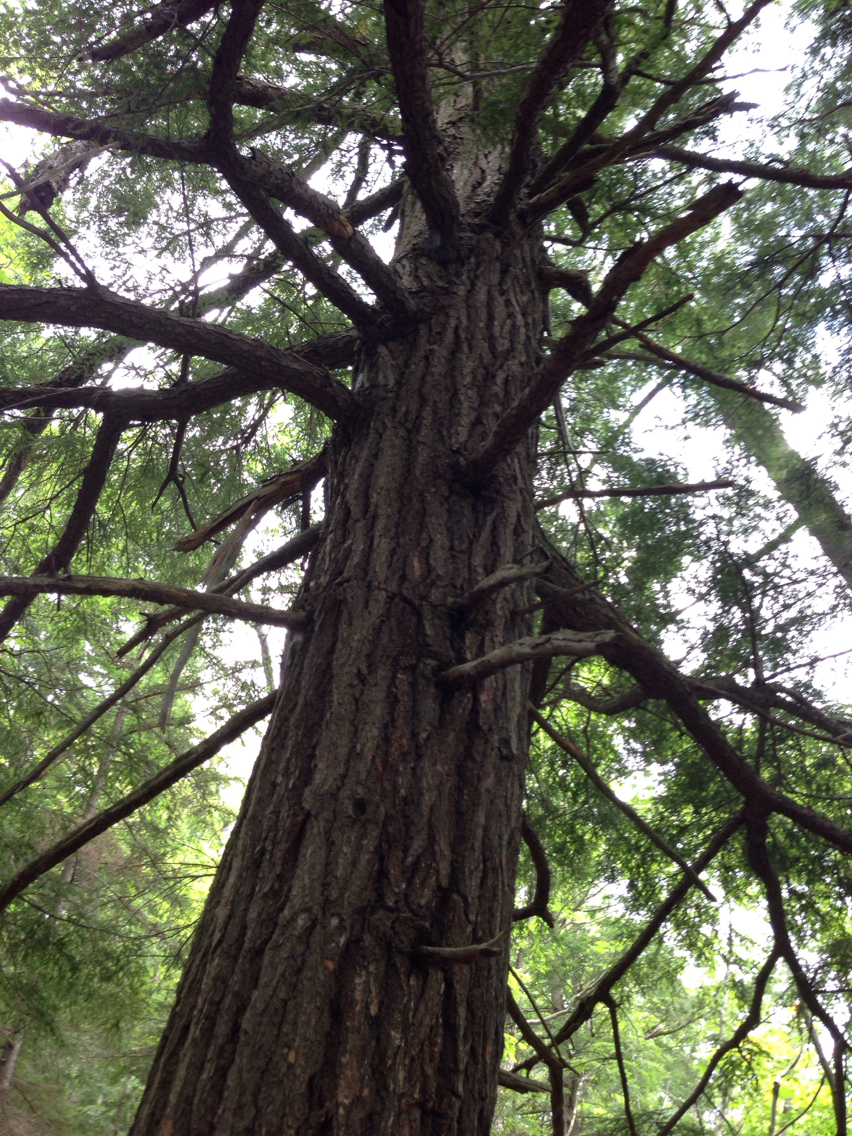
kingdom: Plantae
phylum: Tracheophyta
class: Pinopsida
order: Pinales
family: Pinaceae
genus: Tsuga
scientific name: Tsuga canadensis
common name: Eastern hemlock
